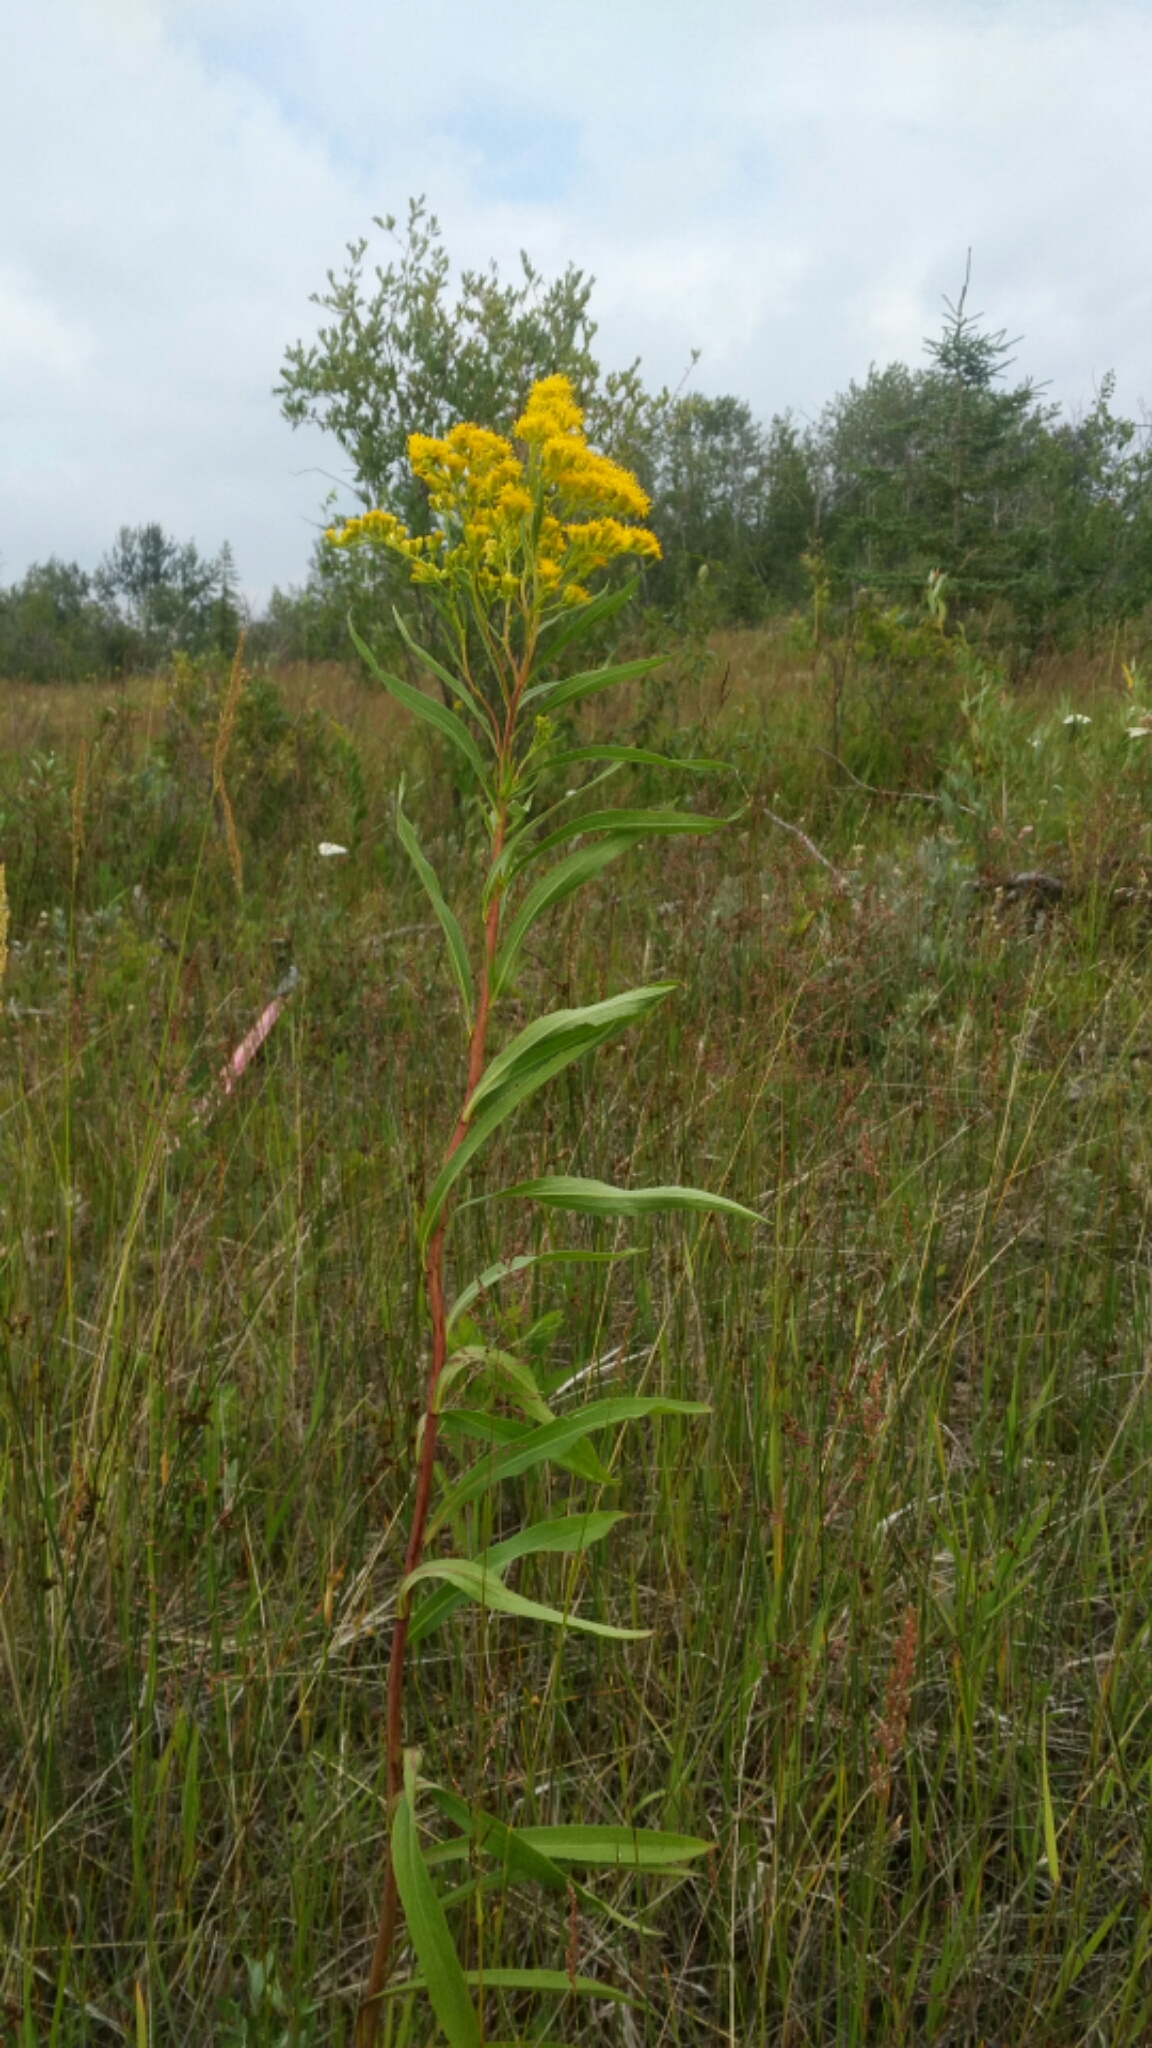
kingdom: Plantae
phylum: Tracheophyta
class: Magnoliopsida
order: Asterales
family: Asteraceae
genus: Solidago
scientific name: Solidago gigantea
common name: Giant goldenrod
